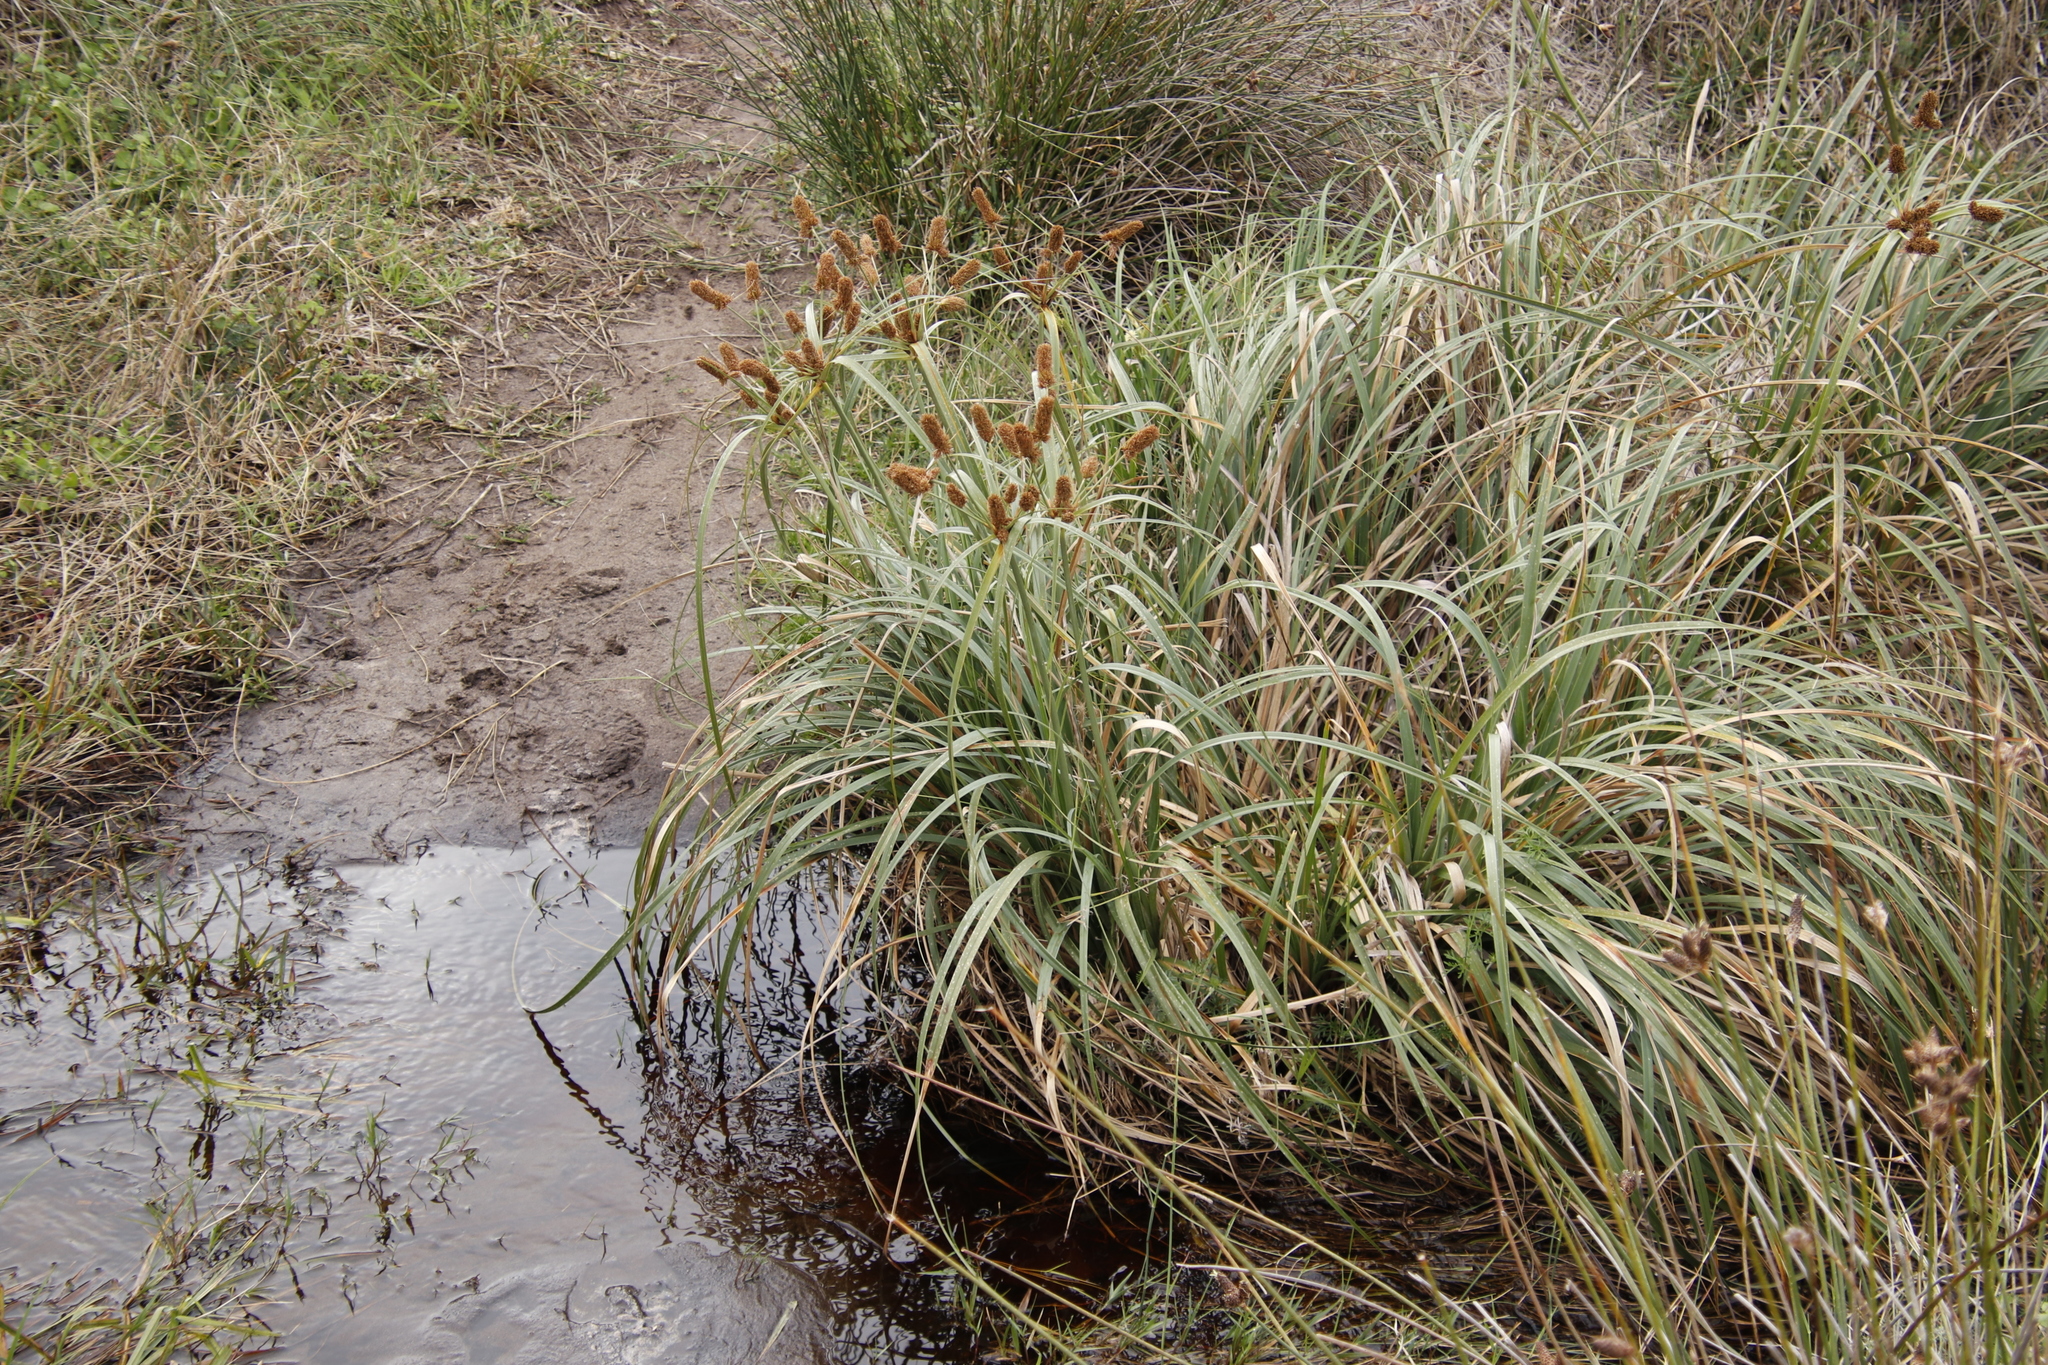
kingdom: Plantae
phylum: Tracheophyta
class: Liliopsida
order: Poales
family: Cyperaceae
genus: Cyperus
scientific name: Cyperus thunbergii
